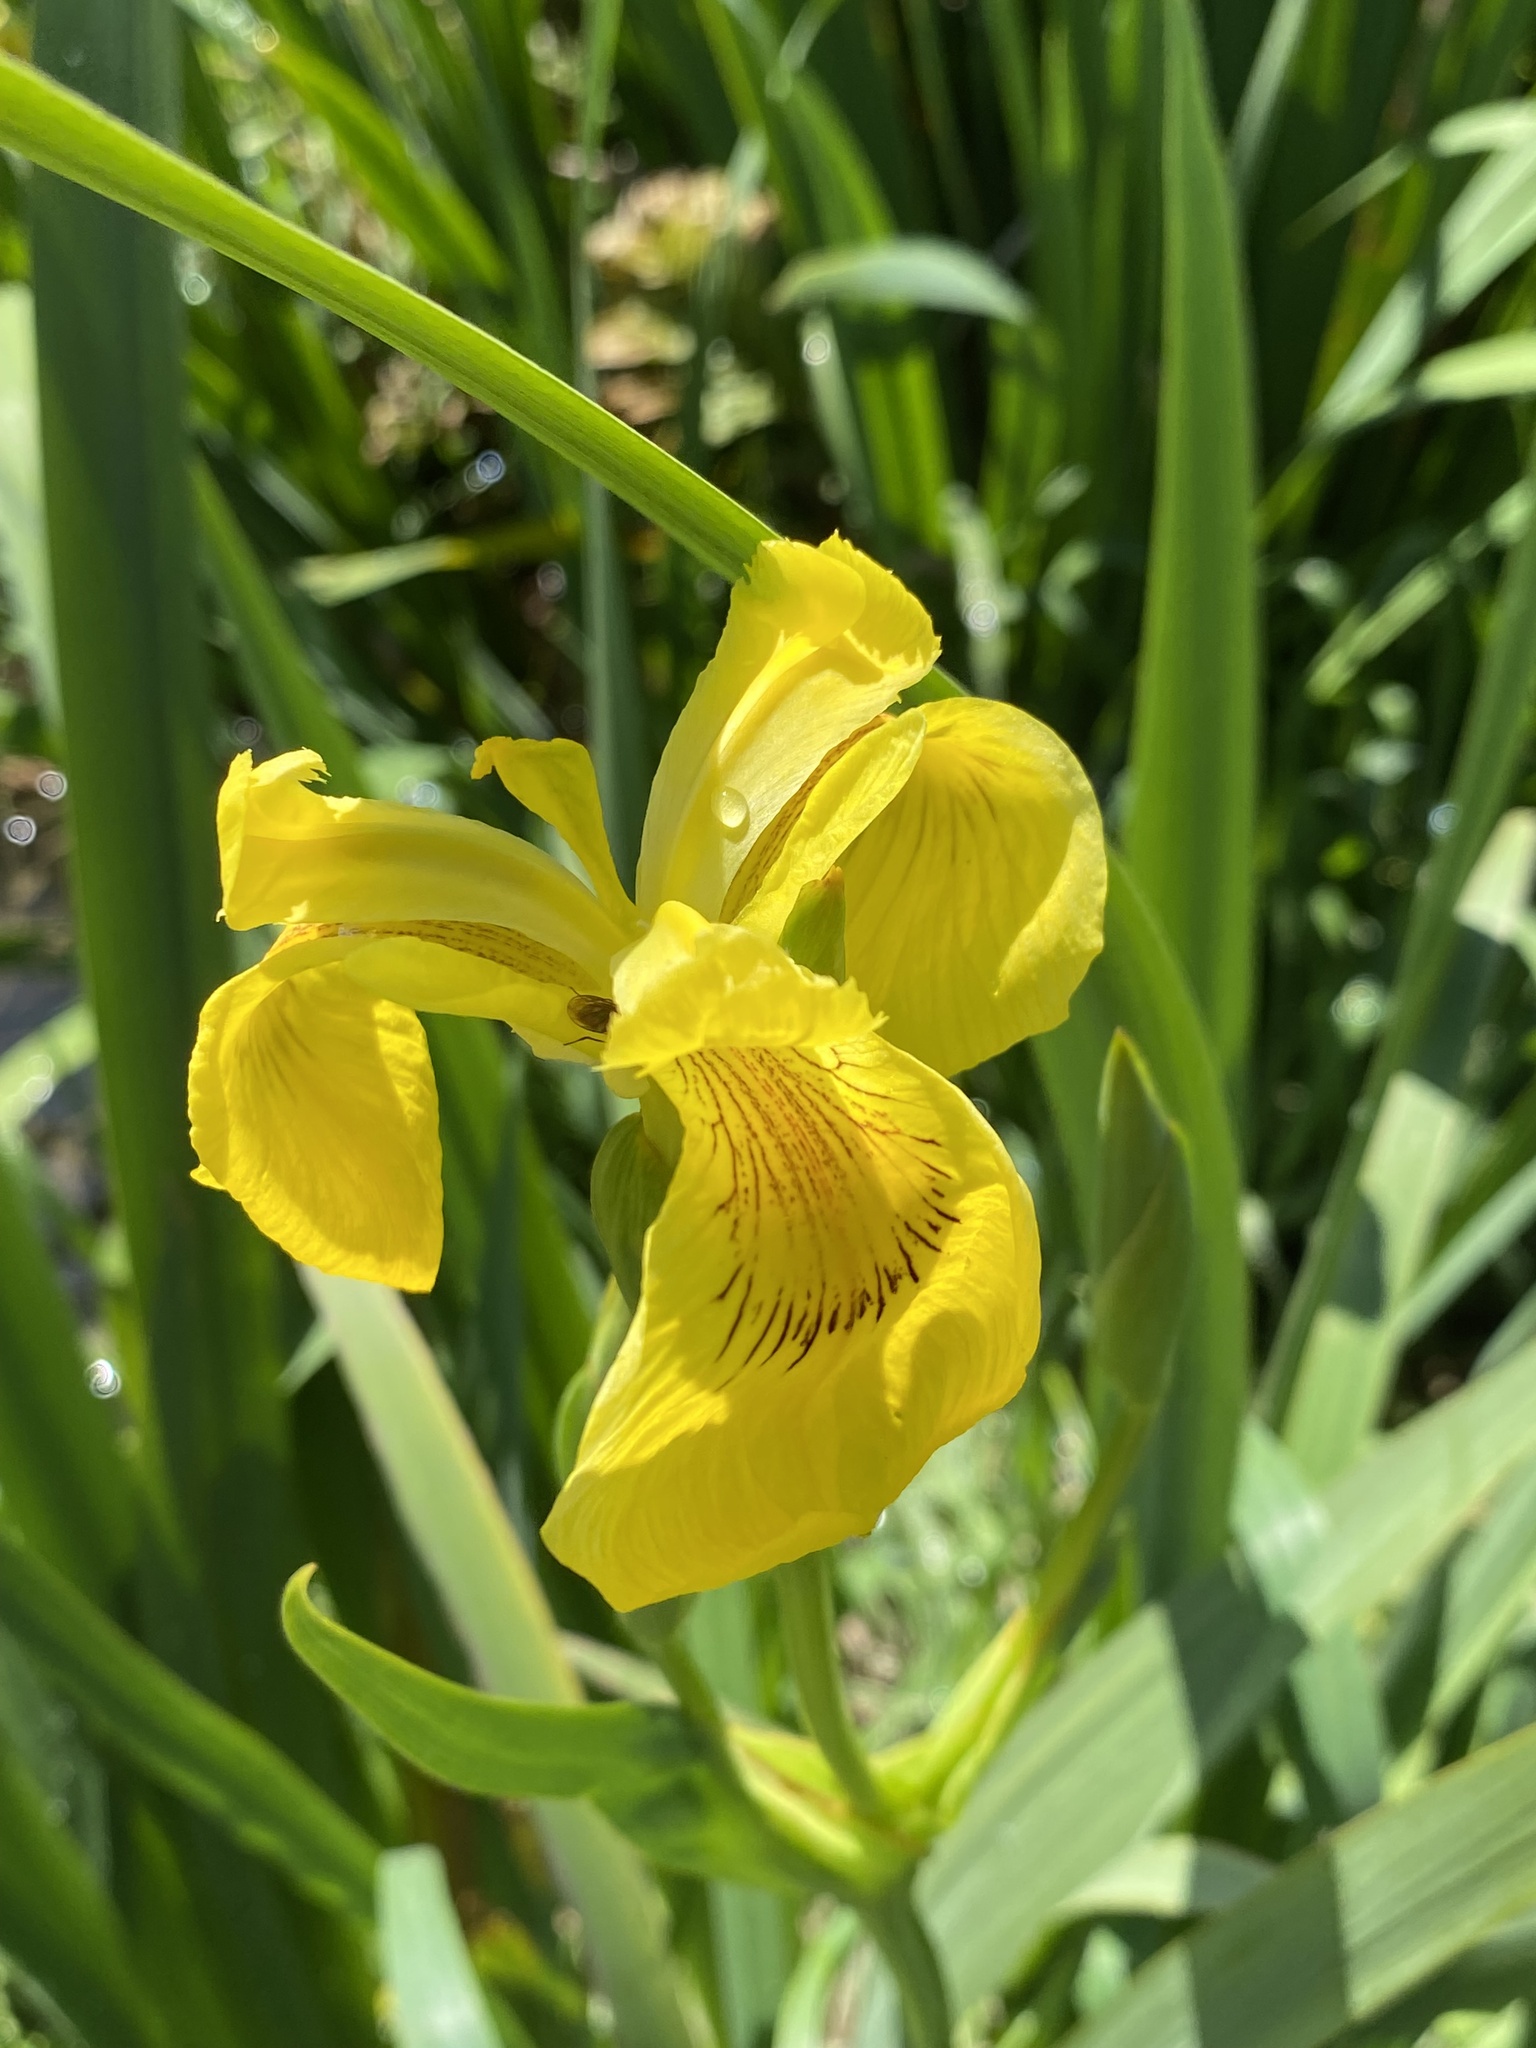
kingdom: Plantae
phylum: Tracheophyta
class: Liliopsida
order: Asparagales
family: Iridaceae
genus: Iris
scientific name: Iris pseudacorus
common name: Yellow flag
